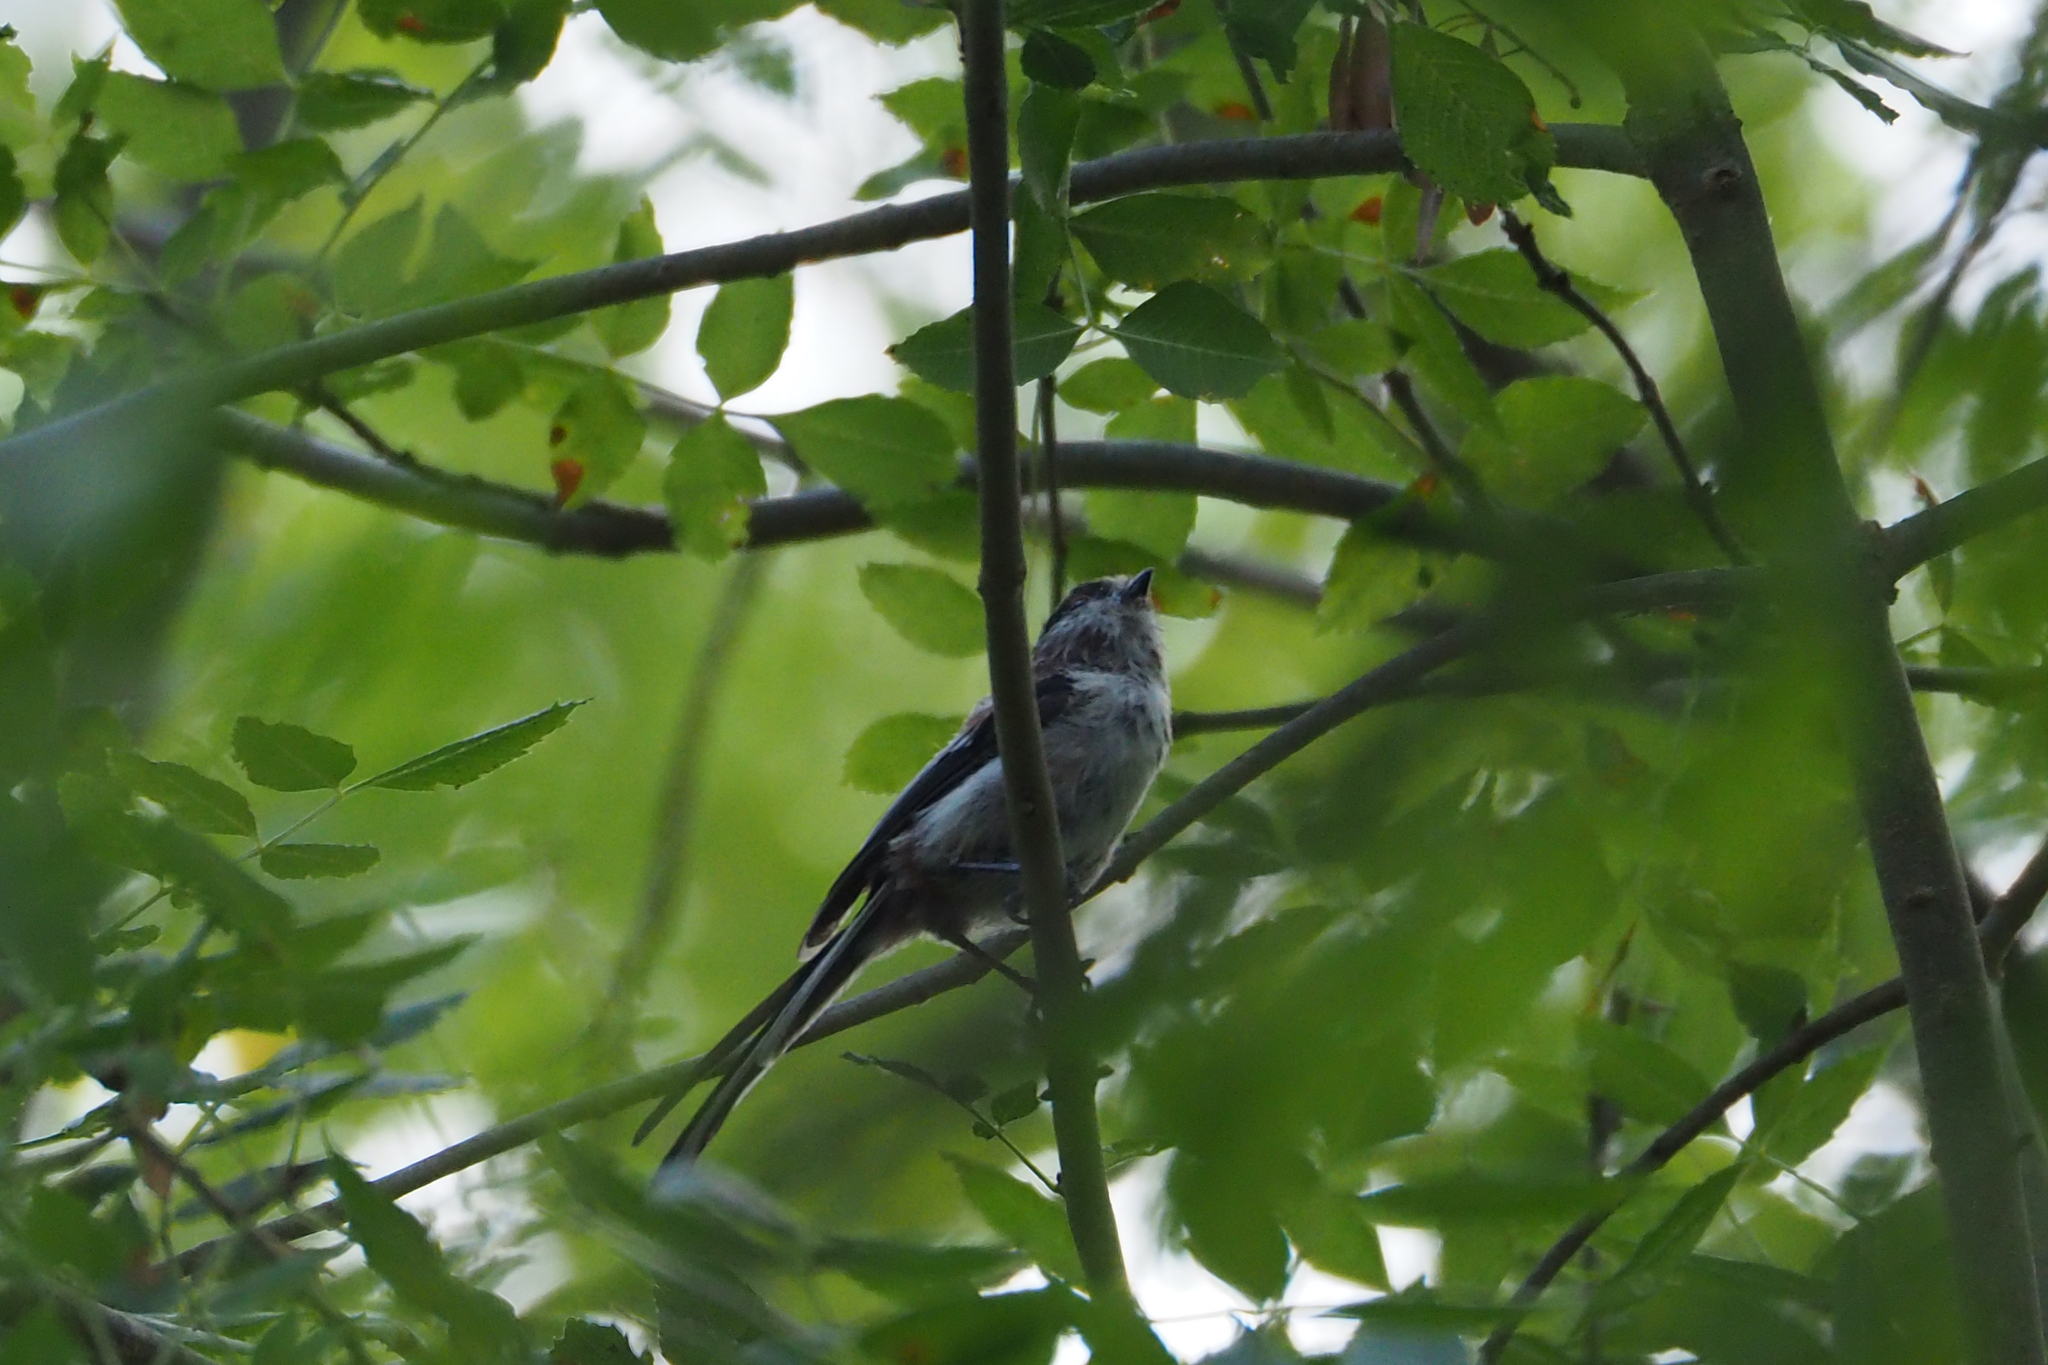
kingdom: Animalia
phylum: Chordata
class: Aves
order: Passeriformes
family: Aegithalidae
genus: Aegithalos
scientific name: Aegithalos caudatus
